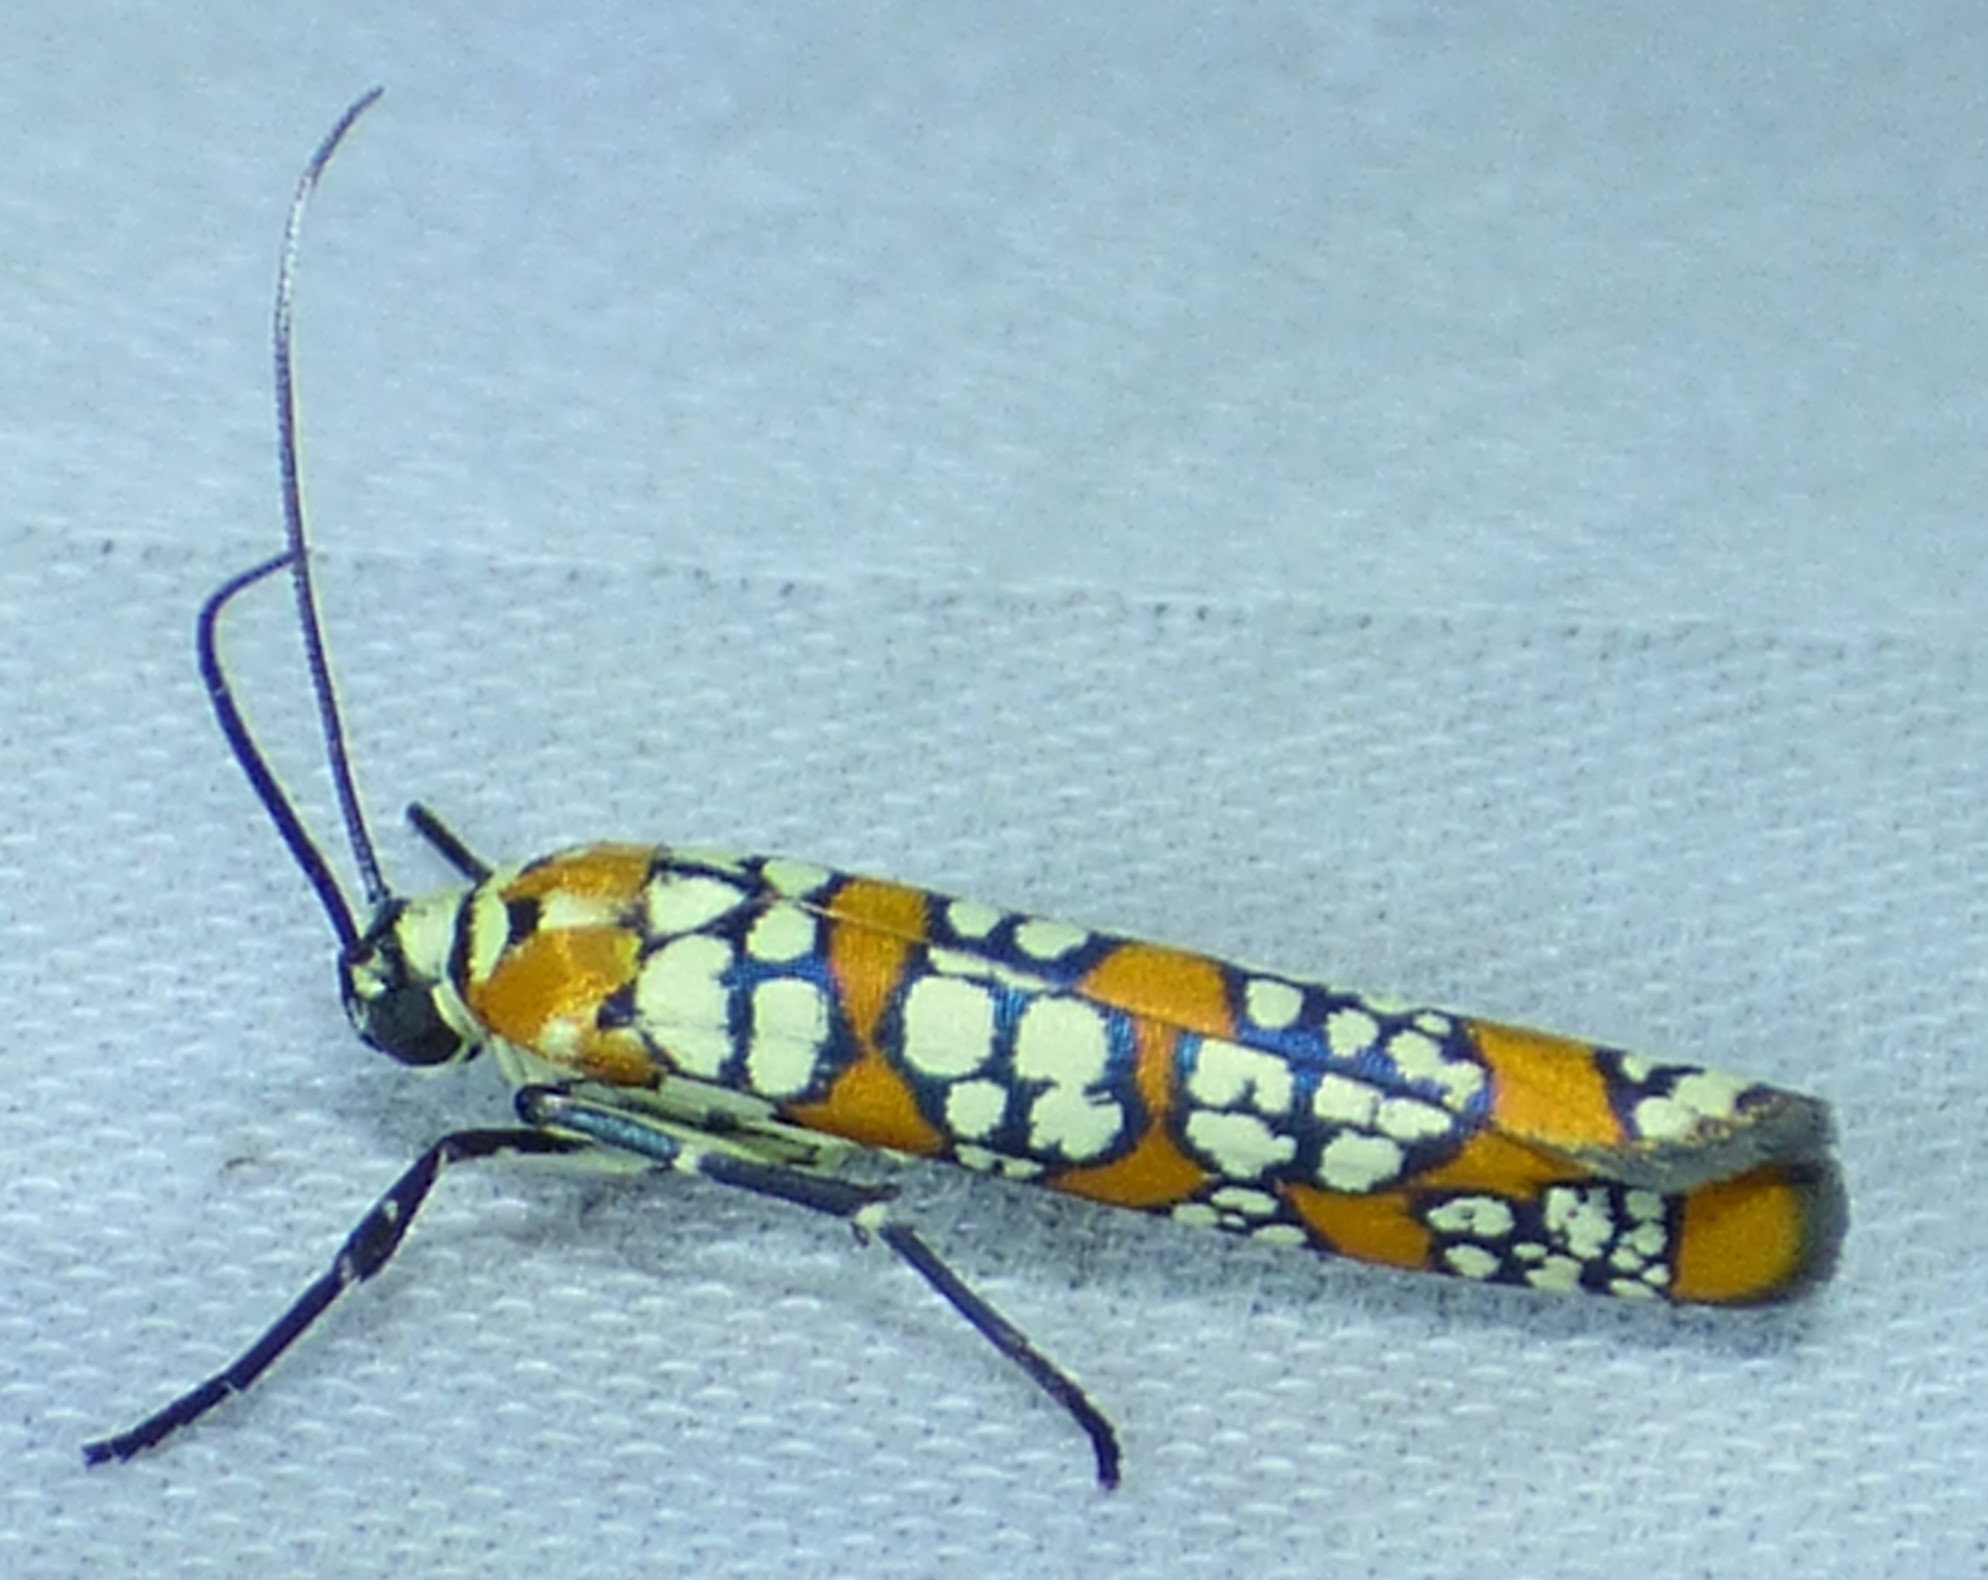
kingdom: Animalia
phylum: Arthropoda
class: Insecta
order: Lepidoptera
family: Attevidae
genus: Atteva
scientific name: Atteva punctella
